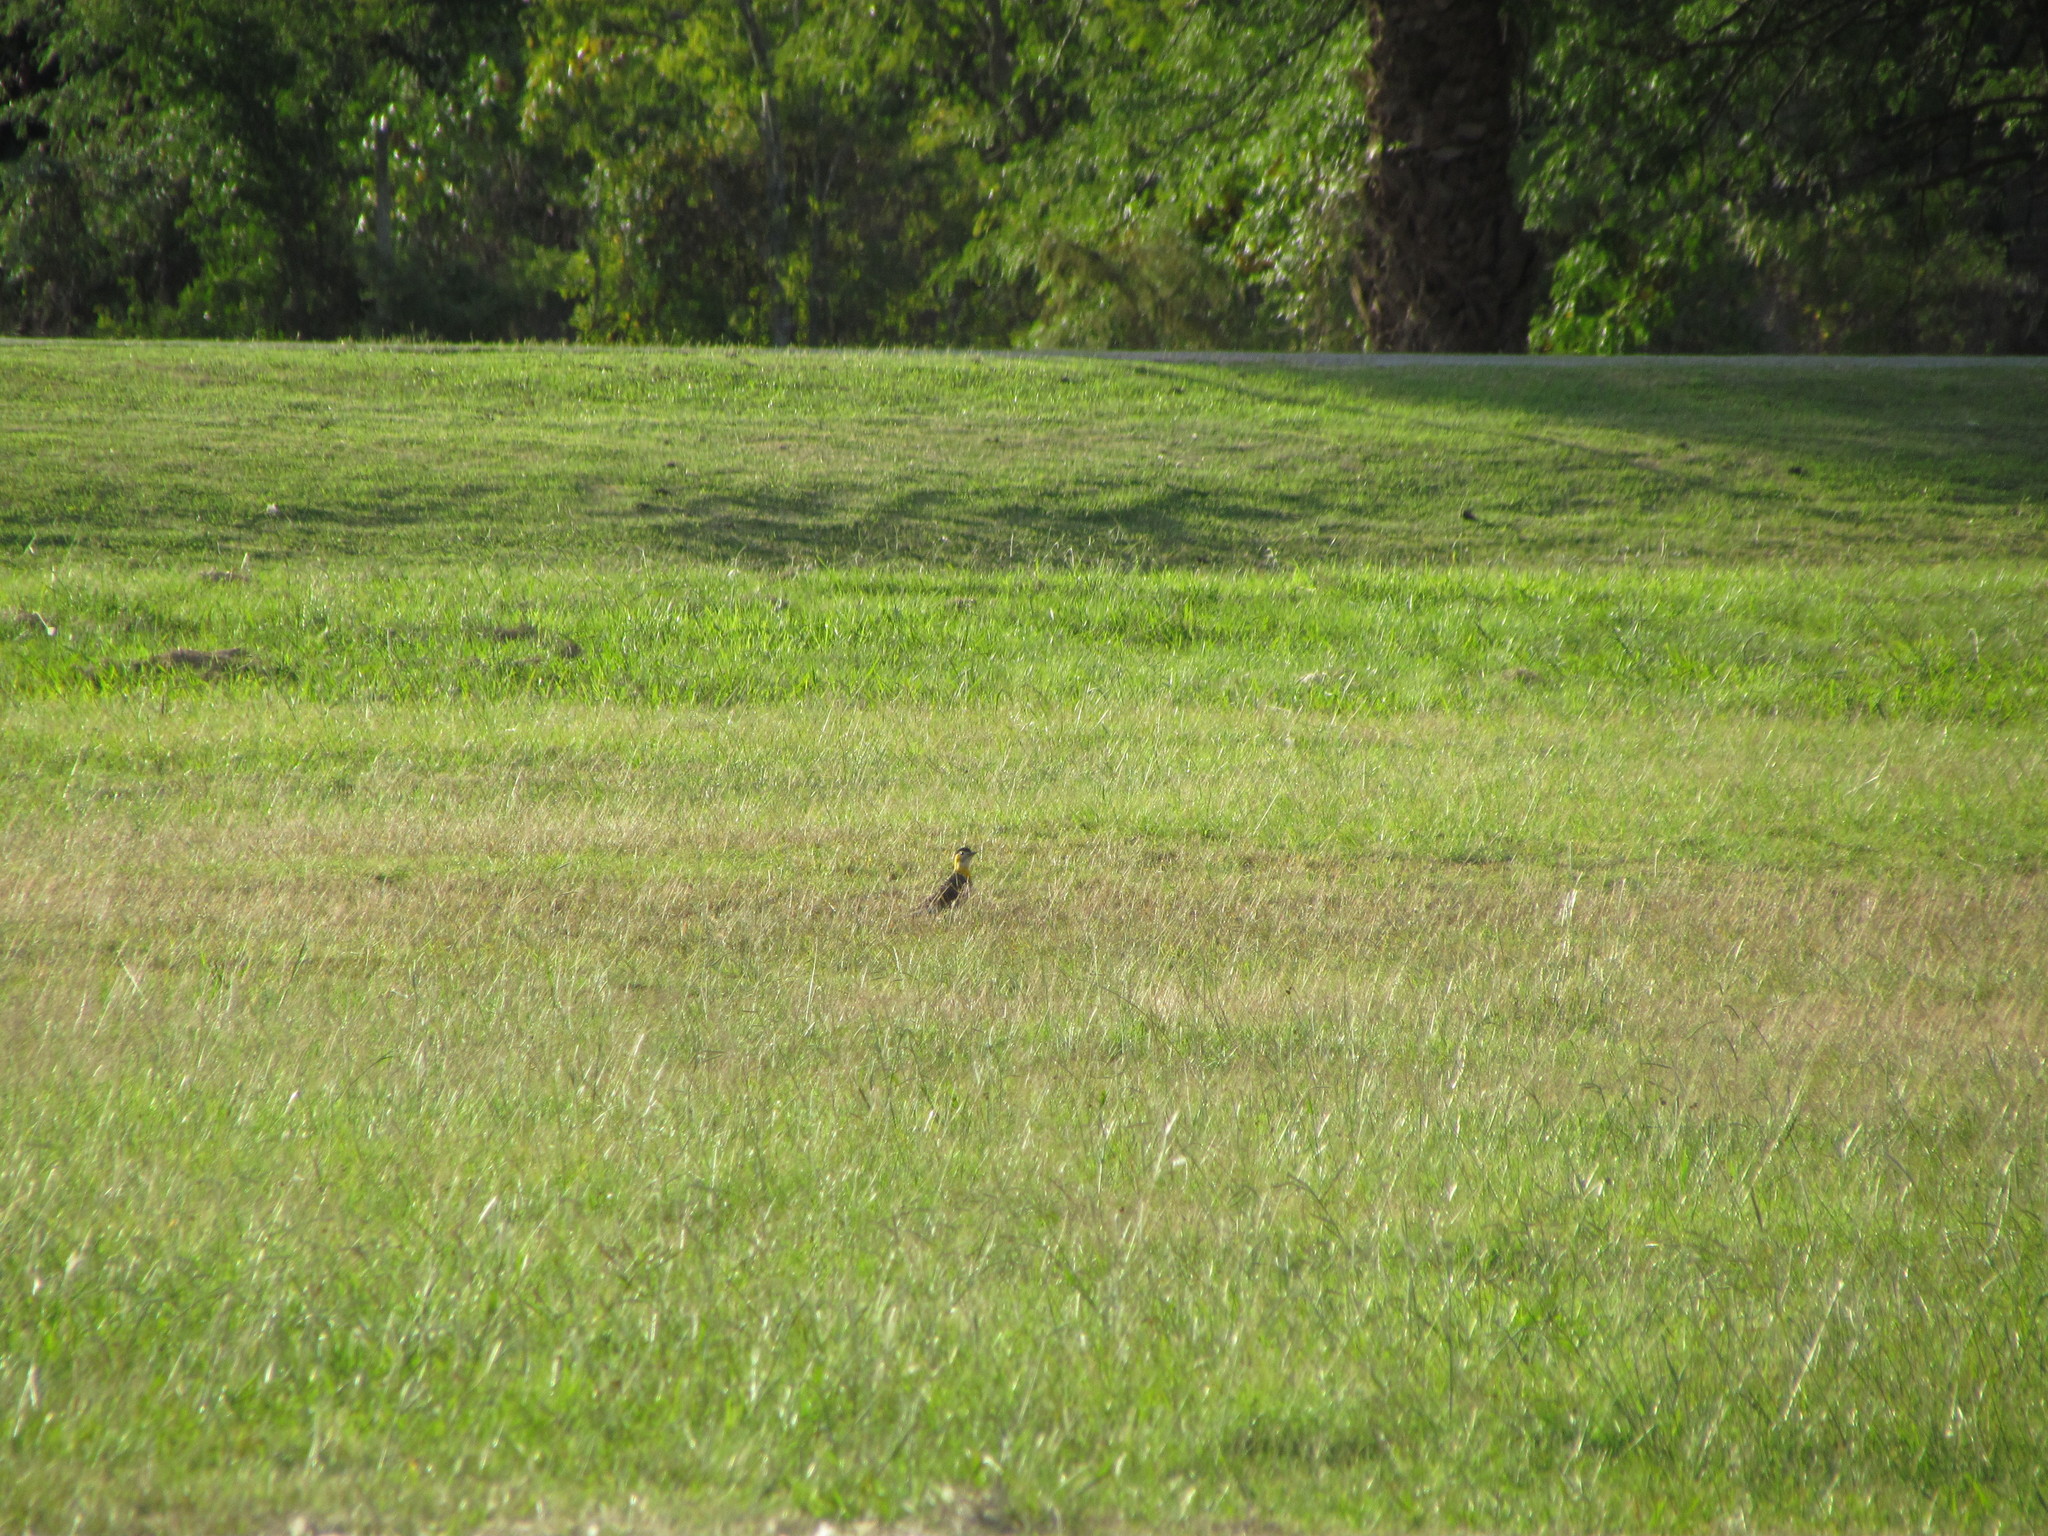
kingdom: Animalia
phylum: Chordata
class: Aves
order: Piciformes
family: Picidae
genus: Colaptes
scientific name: Colaptes campestris
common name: Campo flicker
